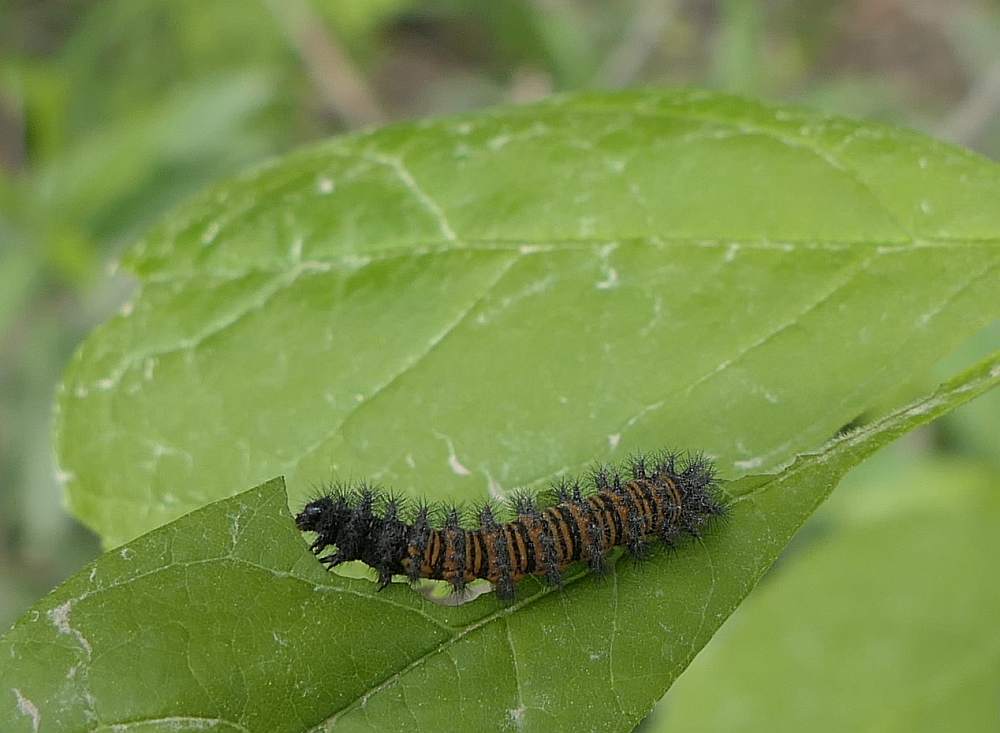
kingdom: Animalia
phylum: Arthropoda
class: Insecta
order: Lepidoptera
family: Nymphalidae
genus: Euphydryas
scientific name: Euphydryas phaeton
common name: Baltimore checkerspot
